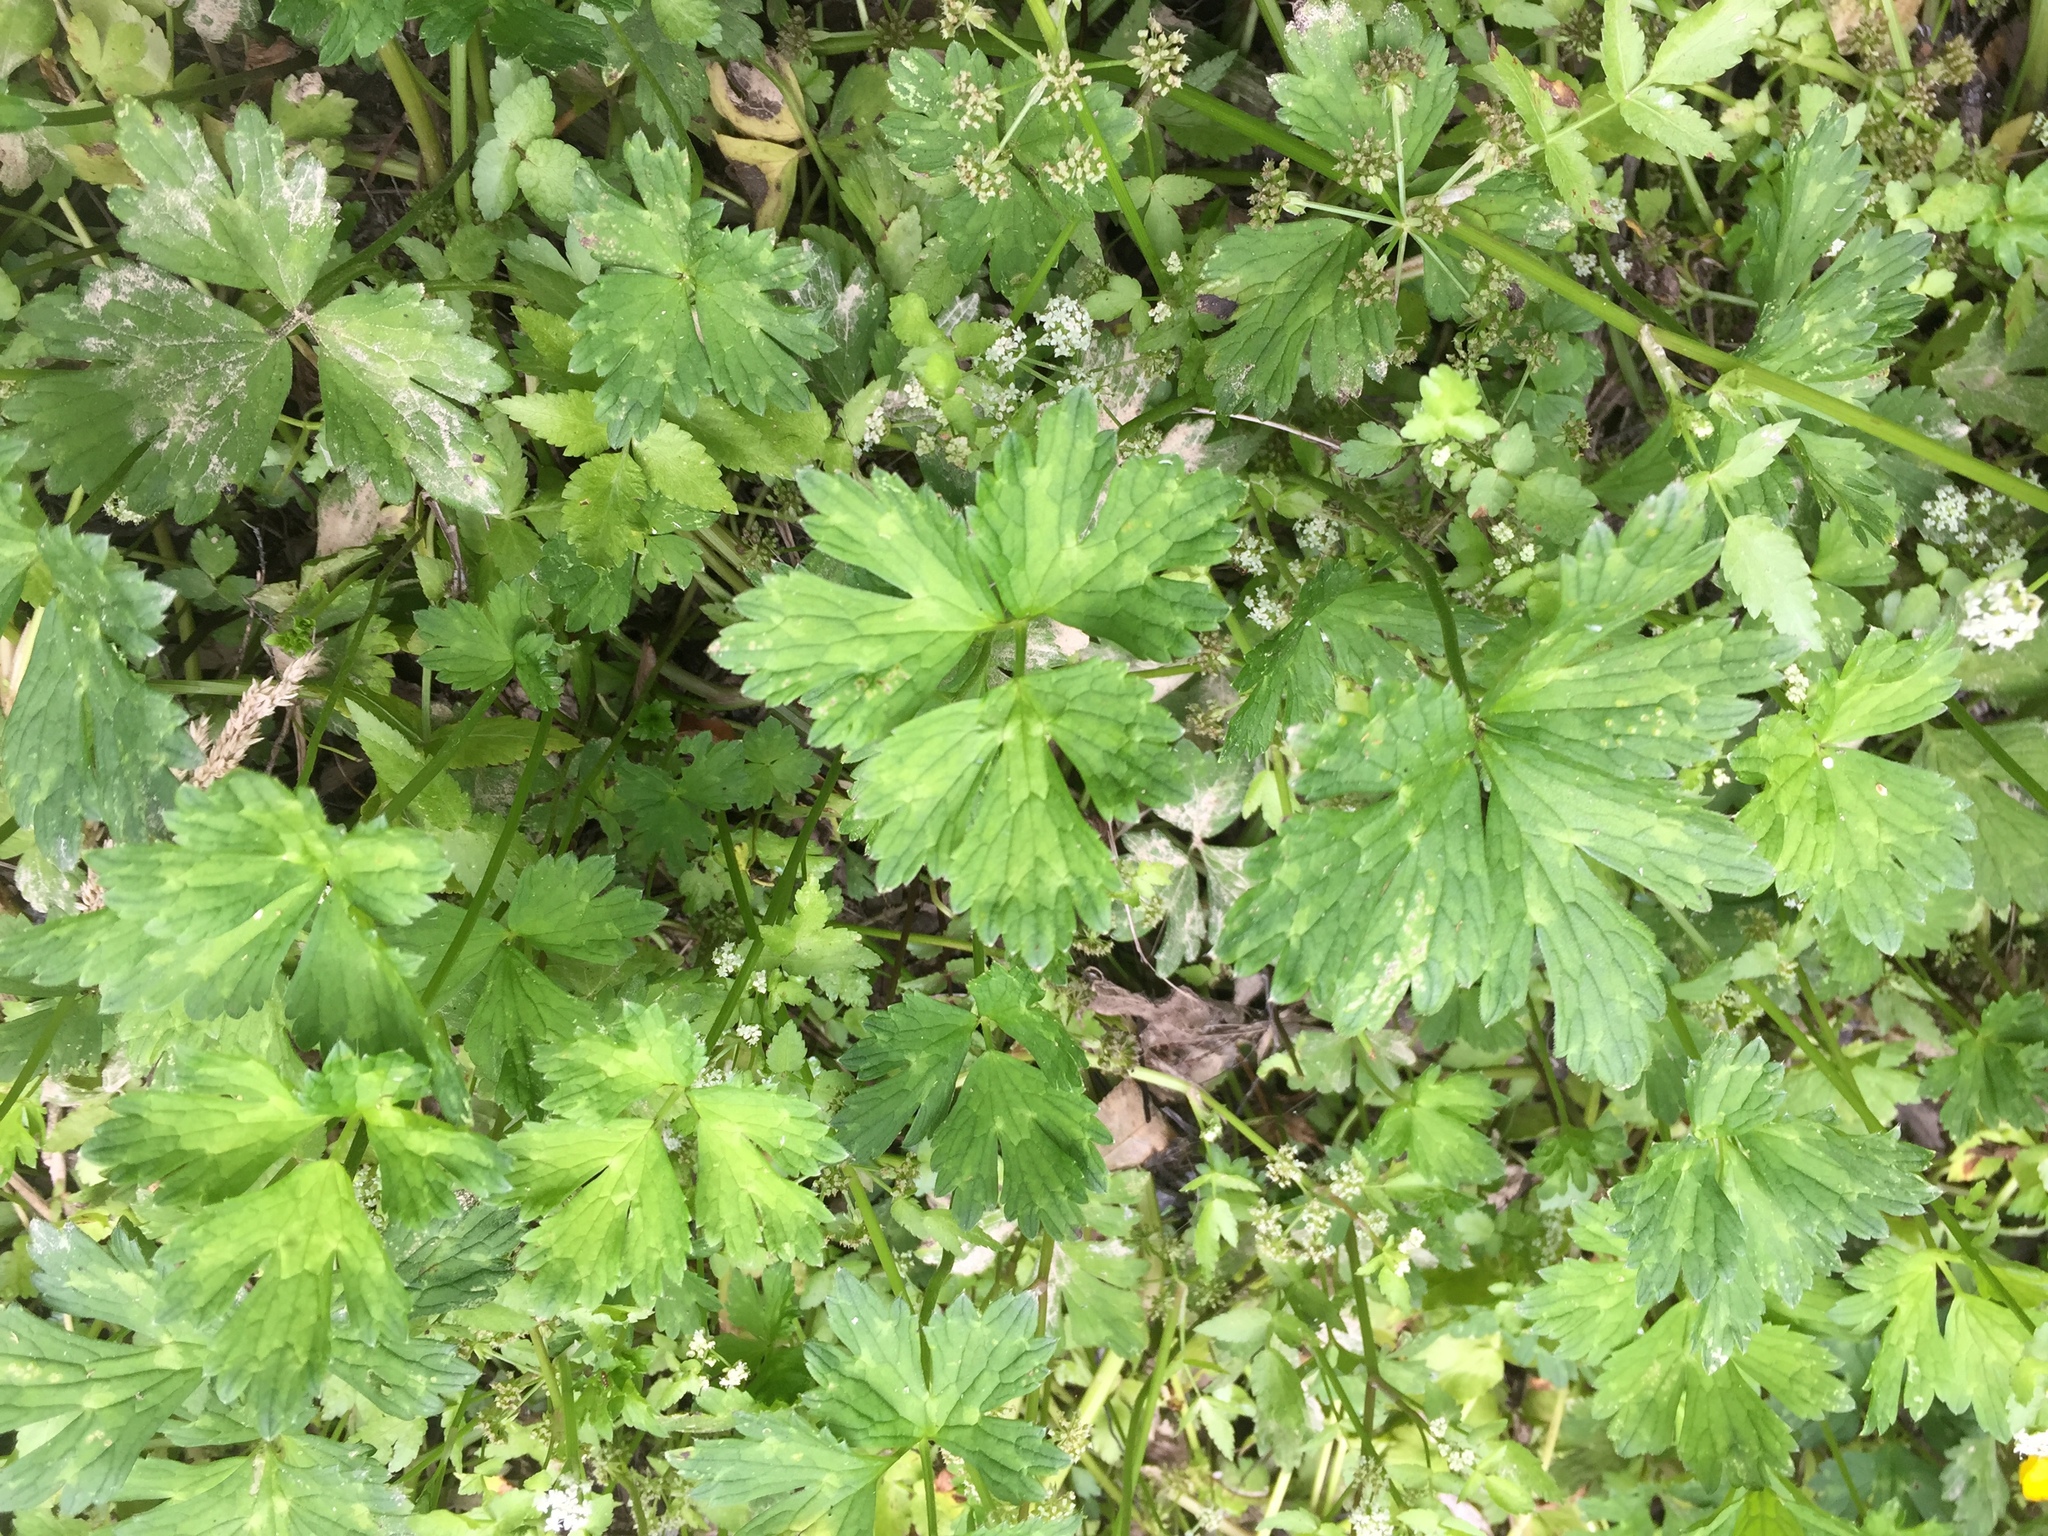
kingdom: Plantae
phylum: Tracheophyta
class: Magnoliopsida
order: Ranunculales
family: Ranunculaceae
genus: Ranunculus
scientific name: Ranunculus repens
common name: Creeping buttercup
